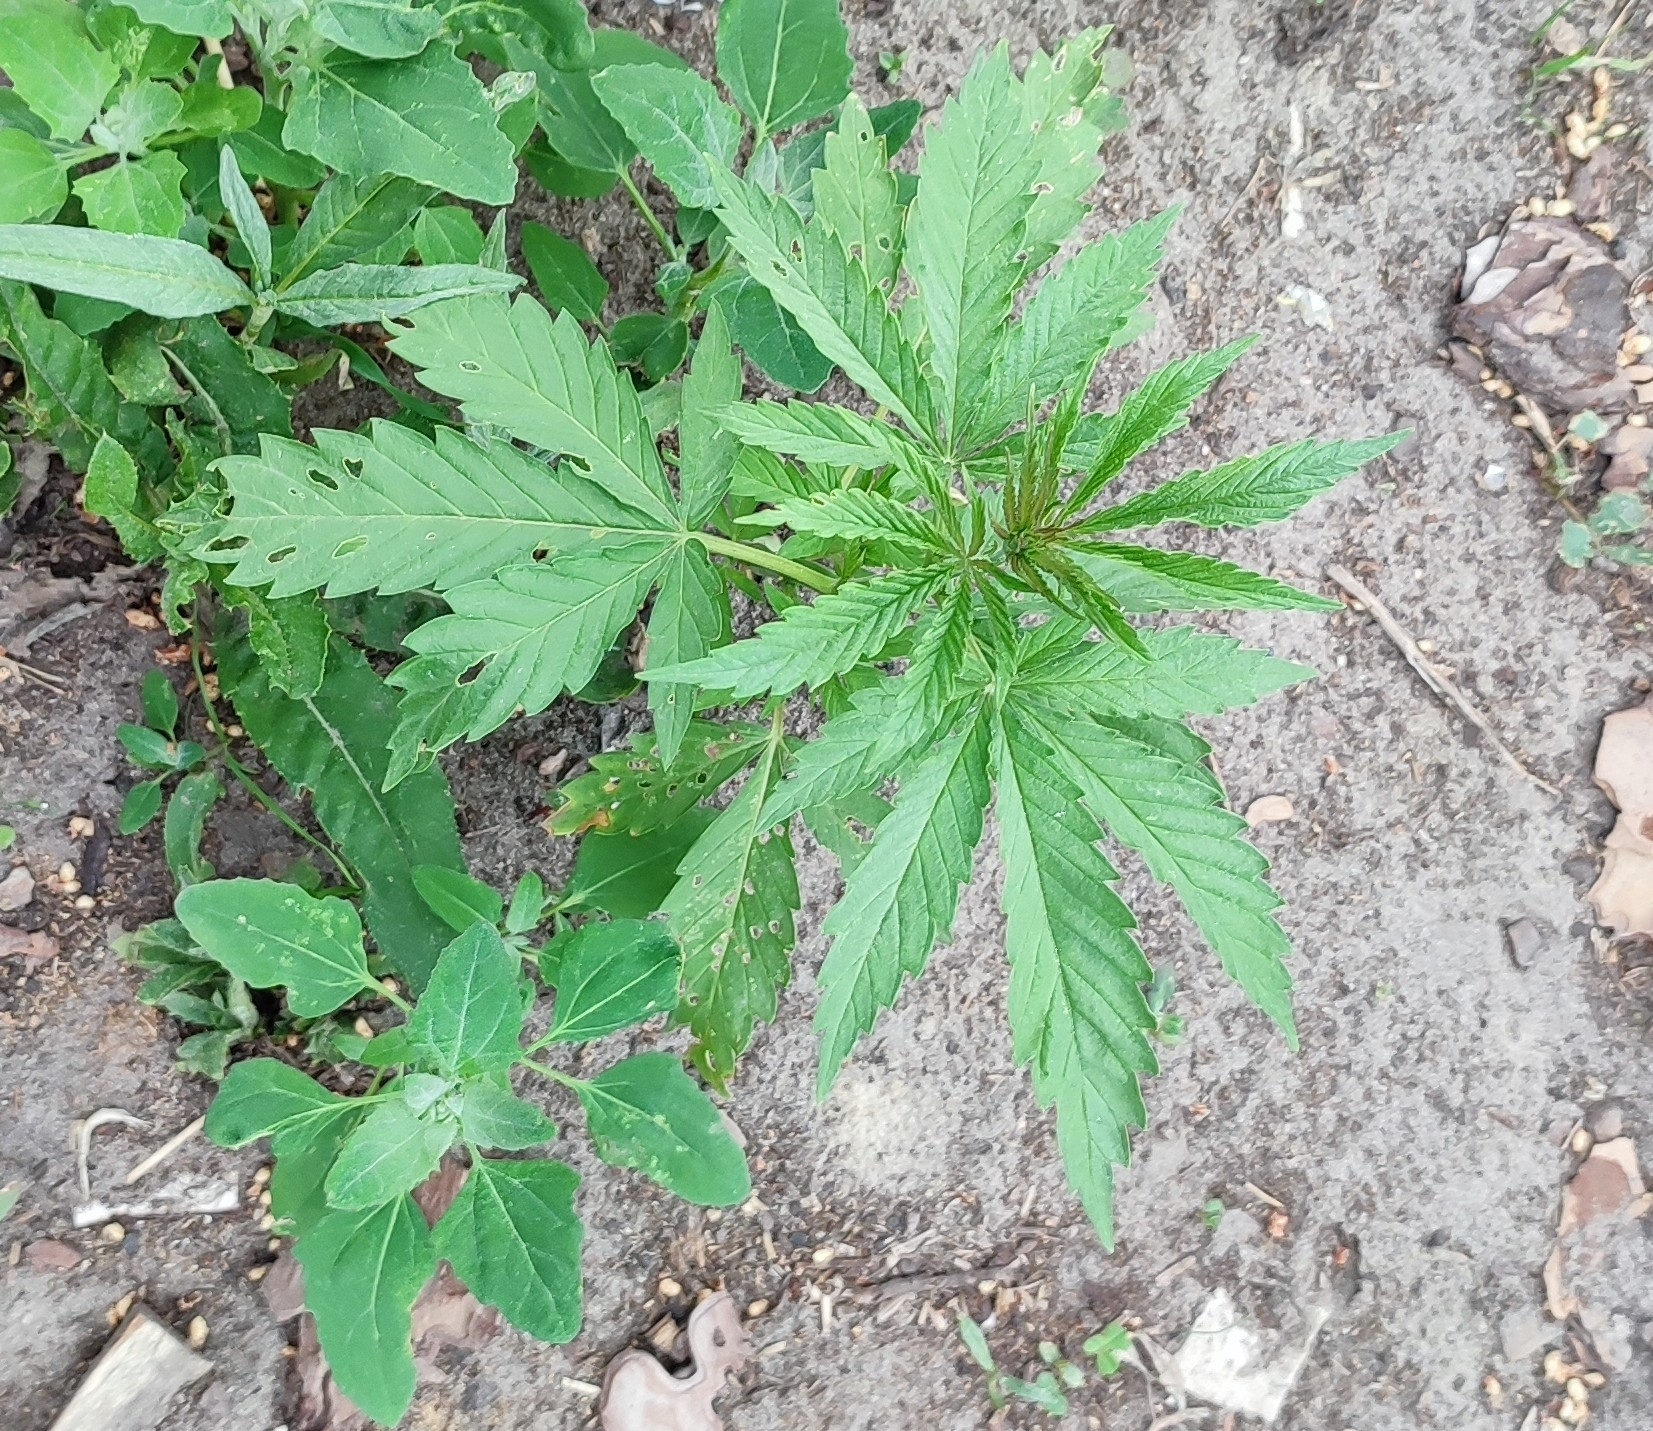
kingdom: Plantae
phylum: Tracheophyta
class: Magnoliopsida
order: Rosales
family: Cannabaceae
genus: Cannabis
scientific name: Cannabis sativa
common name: Hemp
